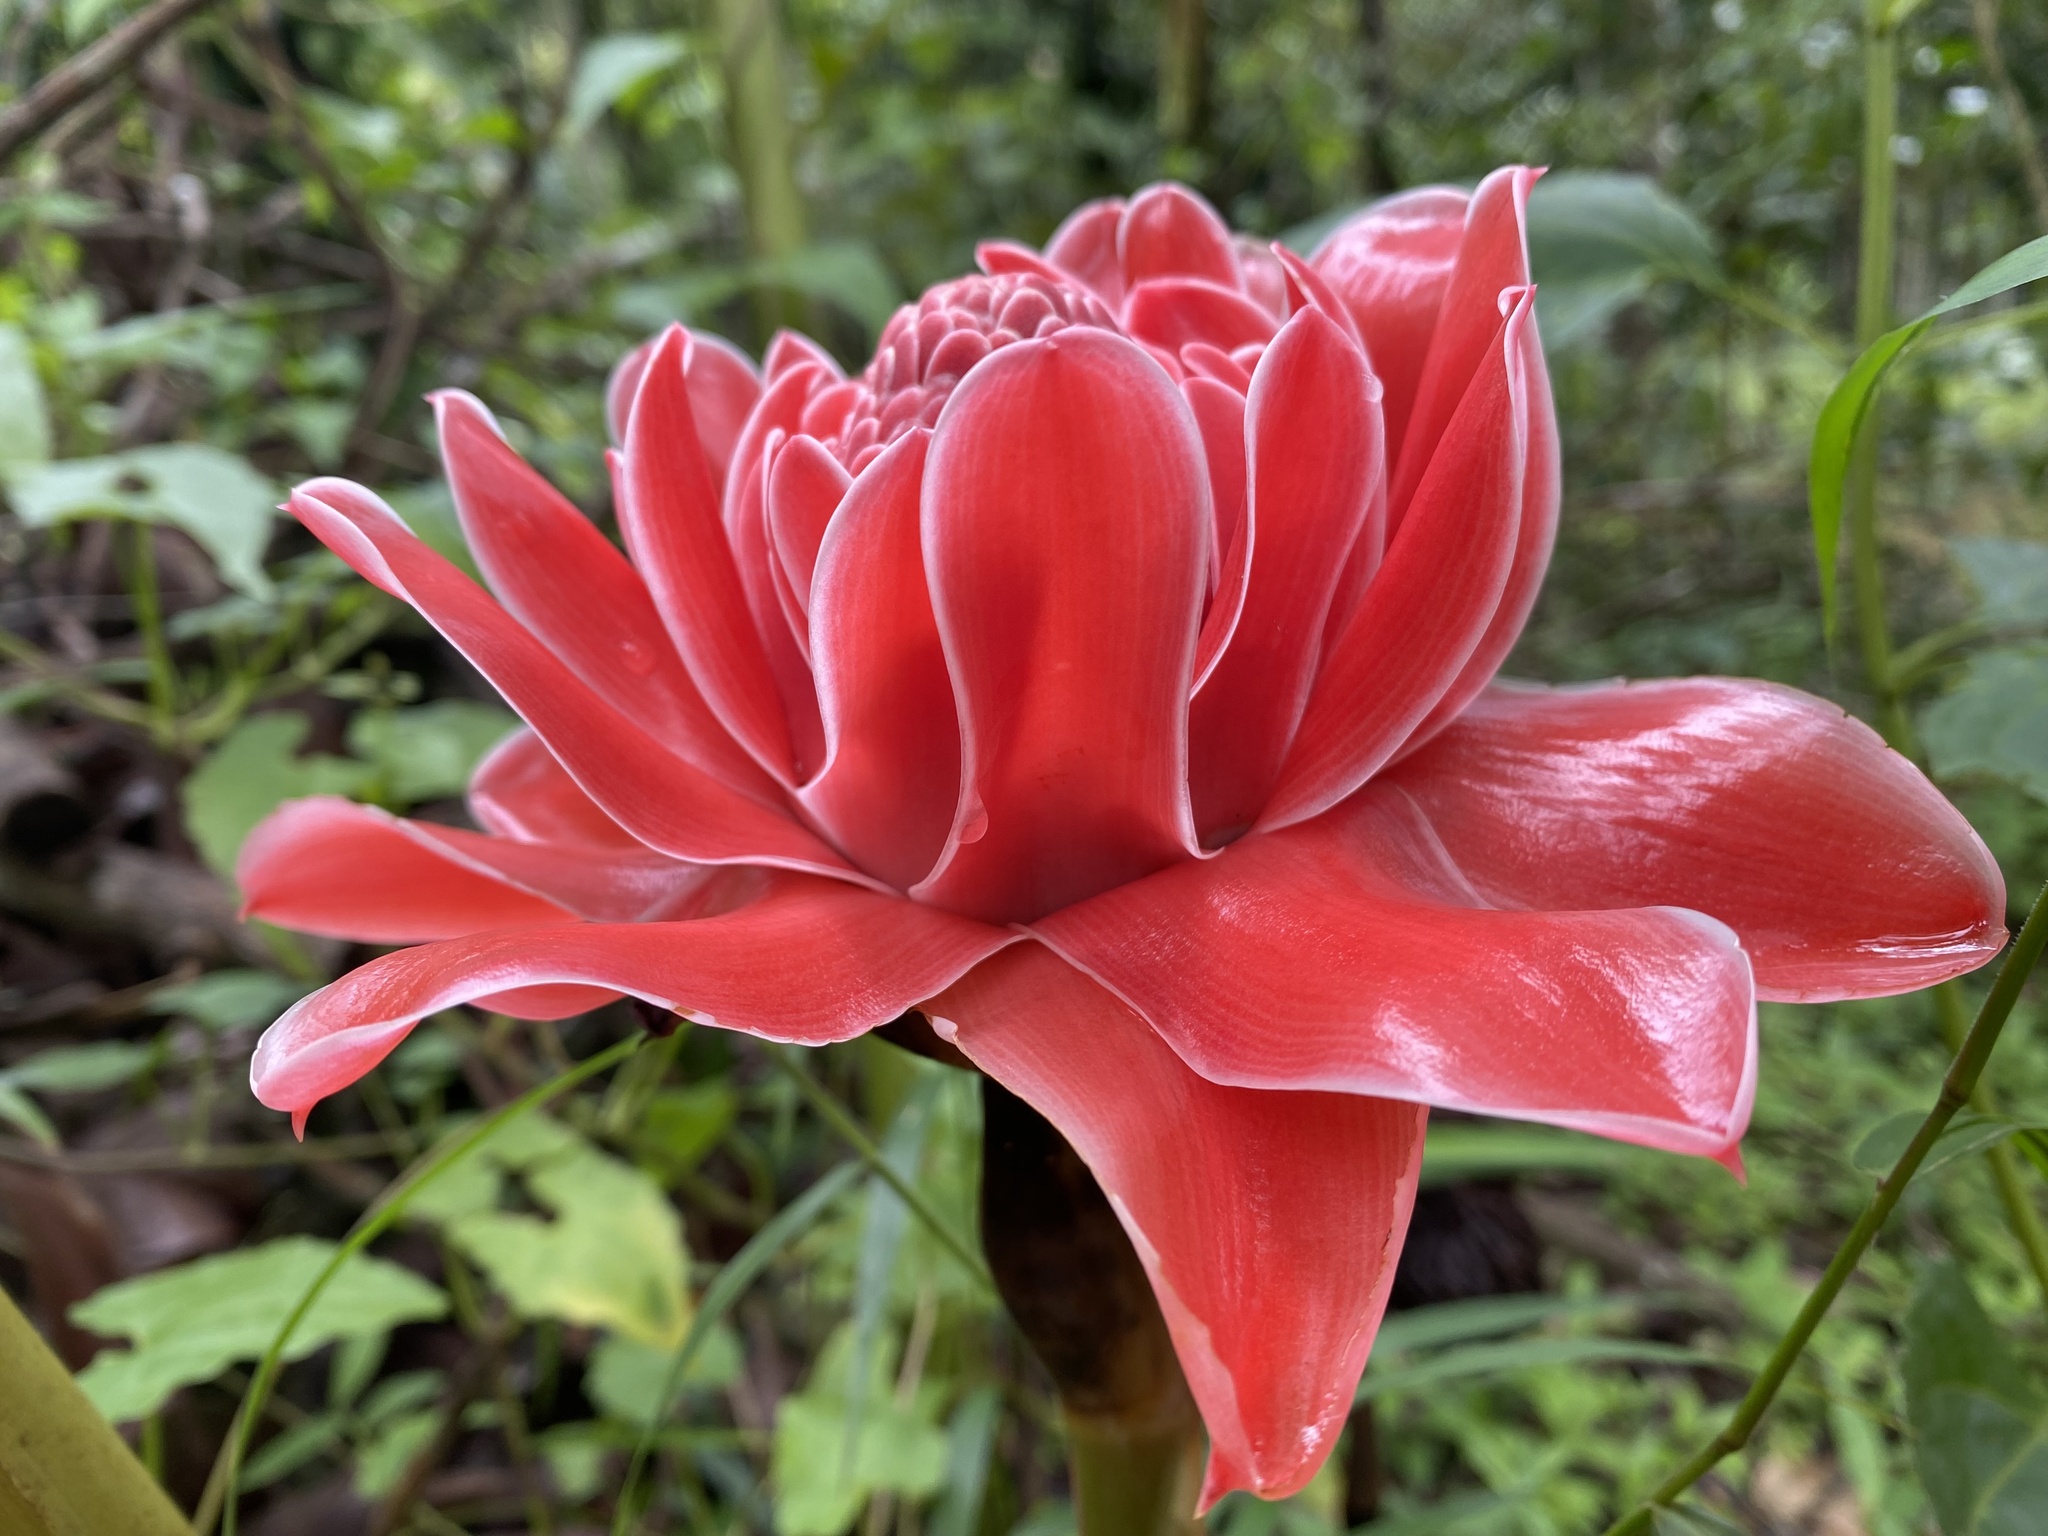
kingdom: Plantae
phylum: Tracheophyta
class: Liliopsida
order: Zingiberales
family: Zingiberaceae
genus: Etlingera
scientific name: Etlingera elatior
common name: Philippine waxflower
